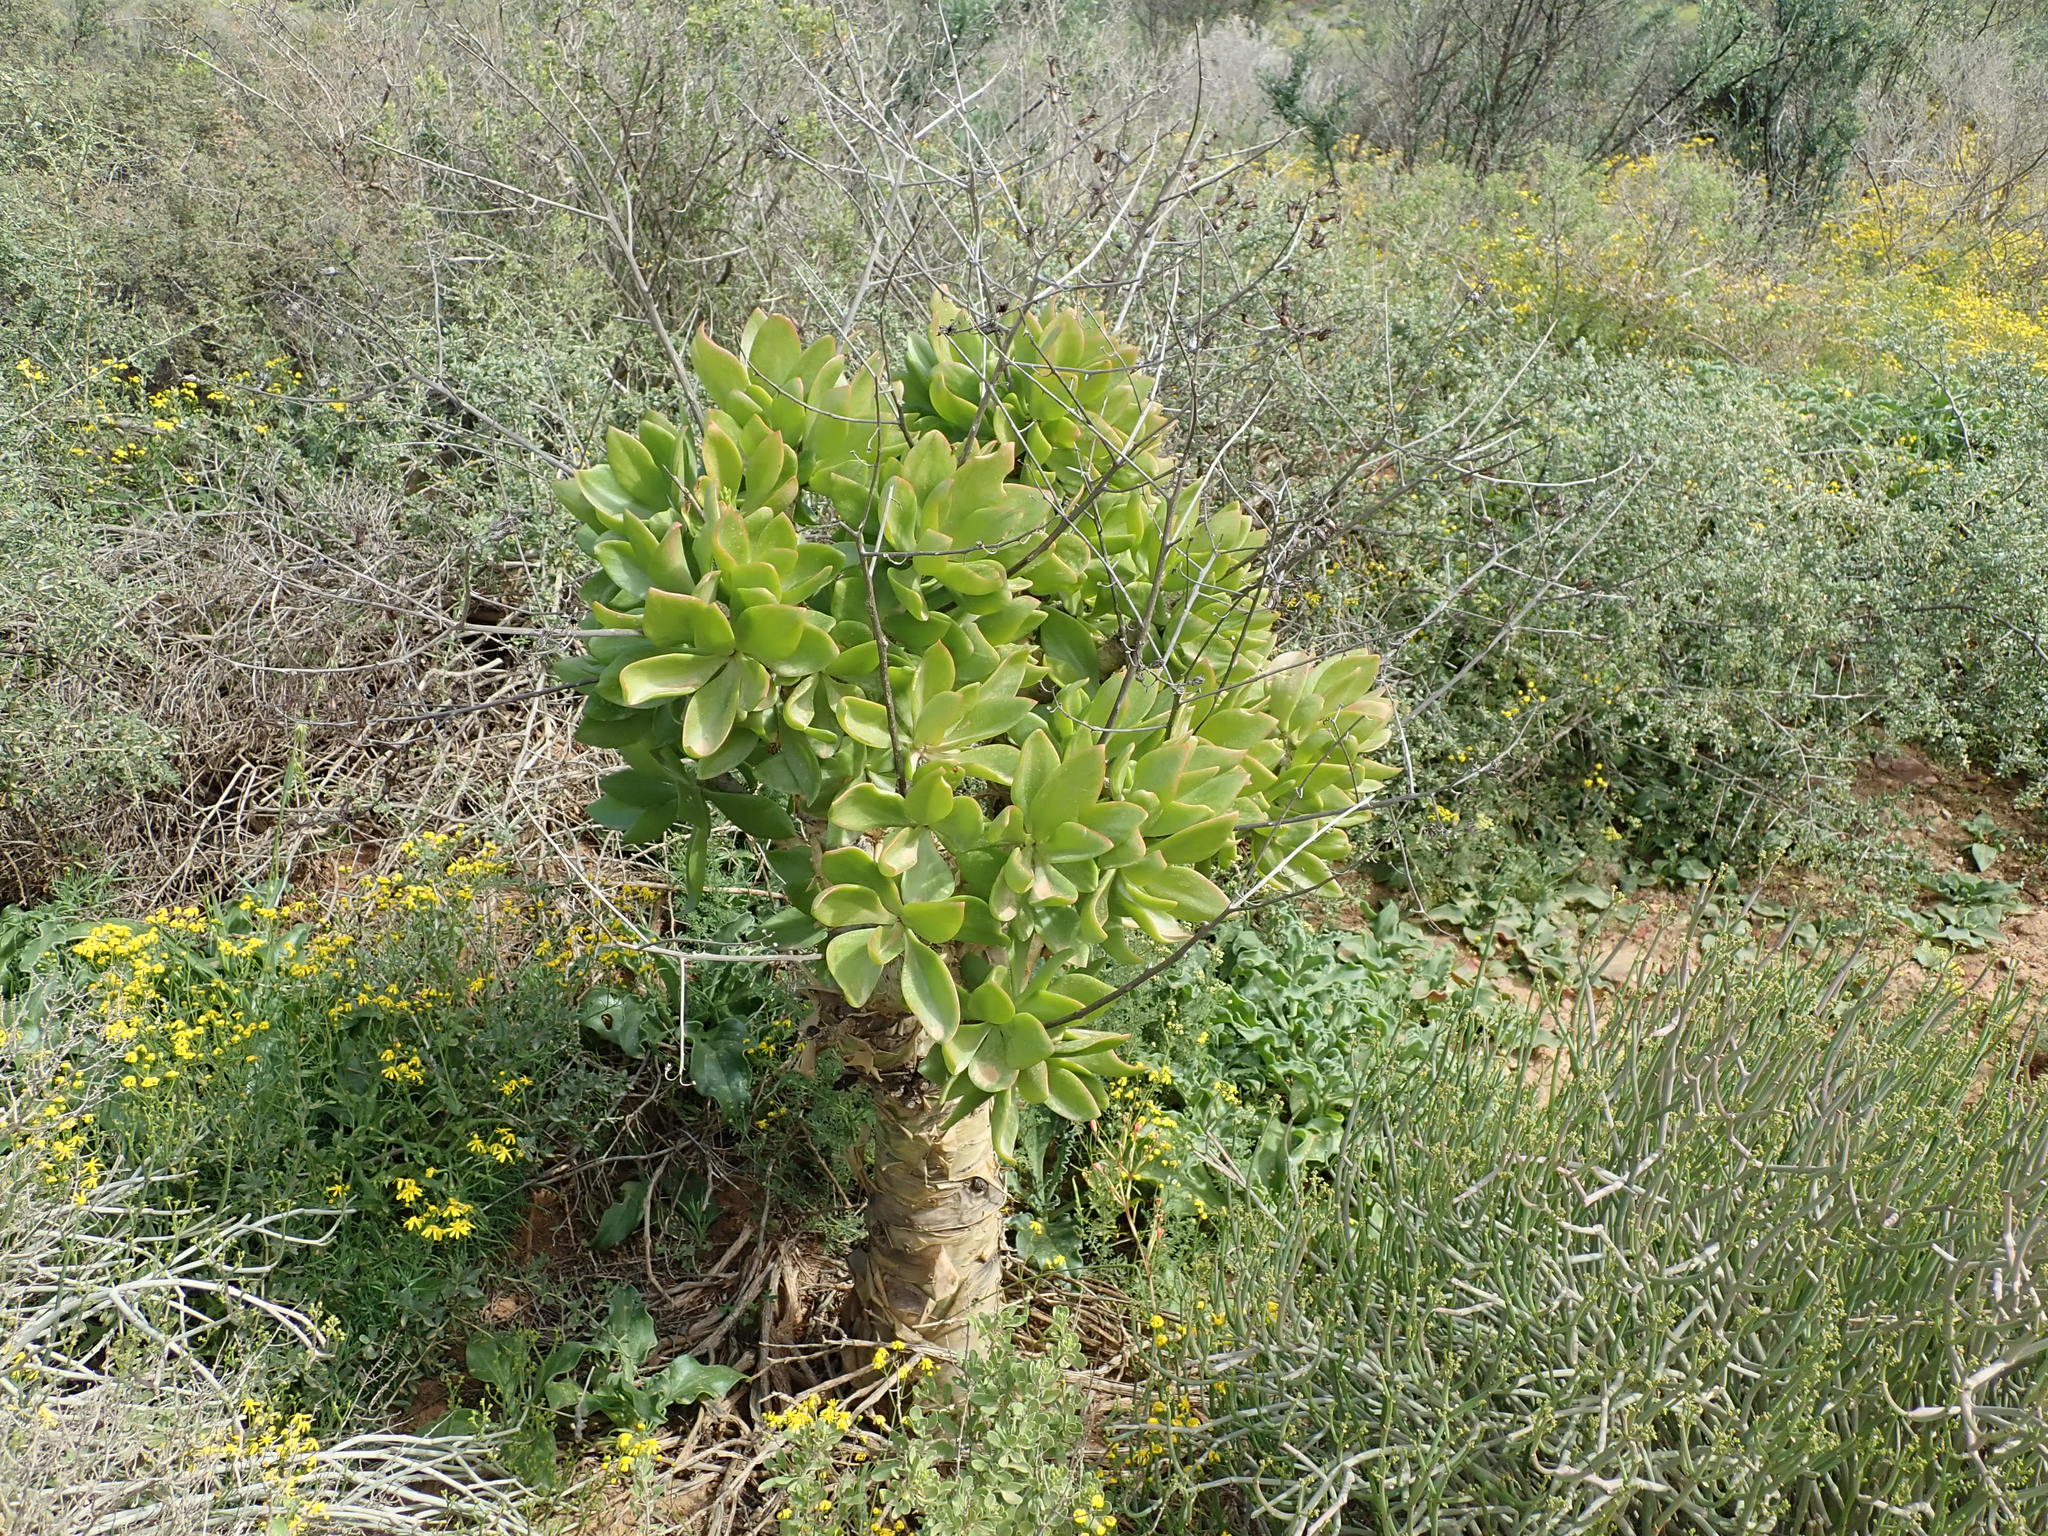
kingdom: Plantae
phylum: Tracheophyta
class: Magnoliopsida
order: Saxifragales
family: Crassulaceae
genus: Tylecodon
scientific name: Tylecodon paniculatus
